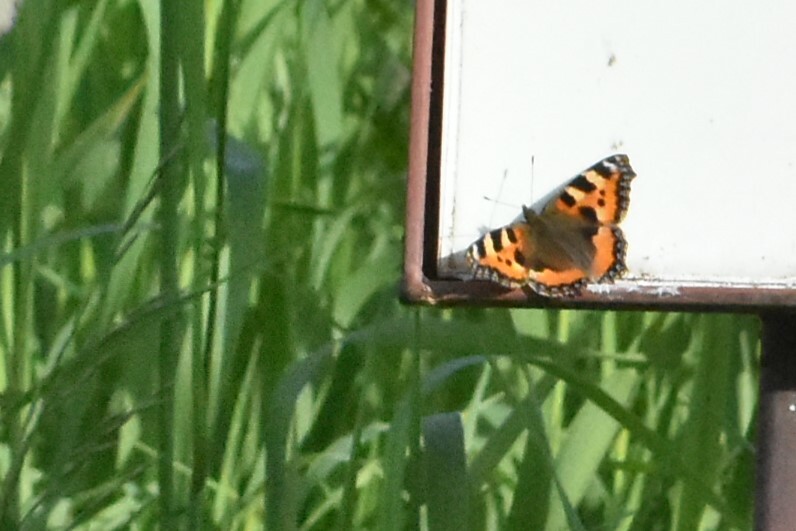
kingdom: Animalia
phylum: Arthropoda
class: Insecta
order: Lepidoptera
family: Nymphalidae
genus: Aglais
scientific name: Aglais urticae
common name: Small tortoiseshell
